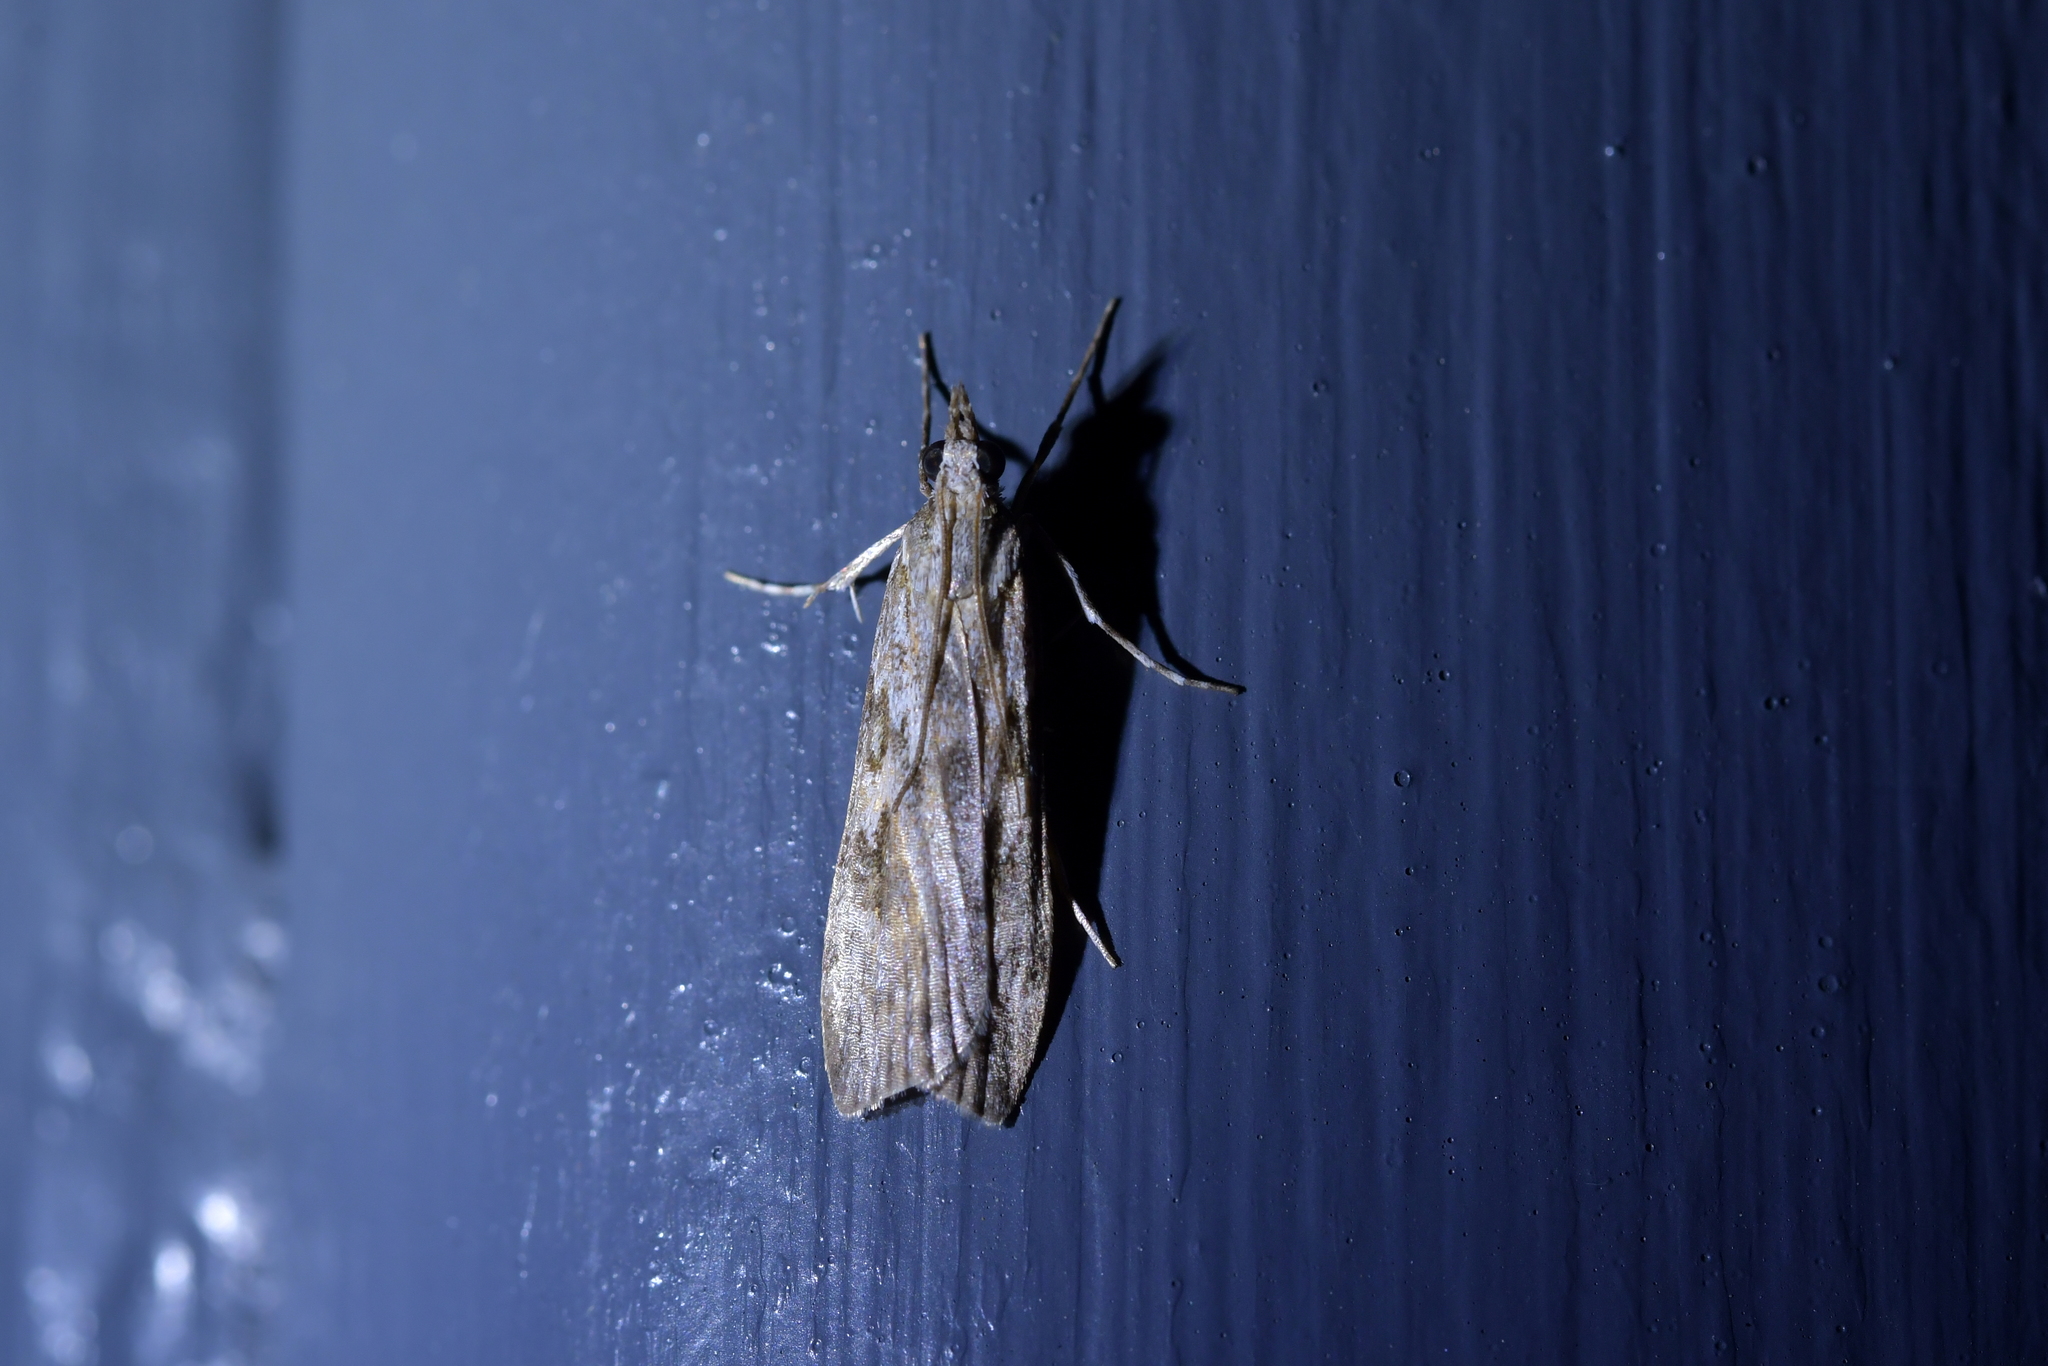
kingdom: Animalia
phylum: Arthropoda
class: Insecta
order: Lepidoptera
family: Crambidae
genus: Scoparia
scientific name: Scoparia halopis
